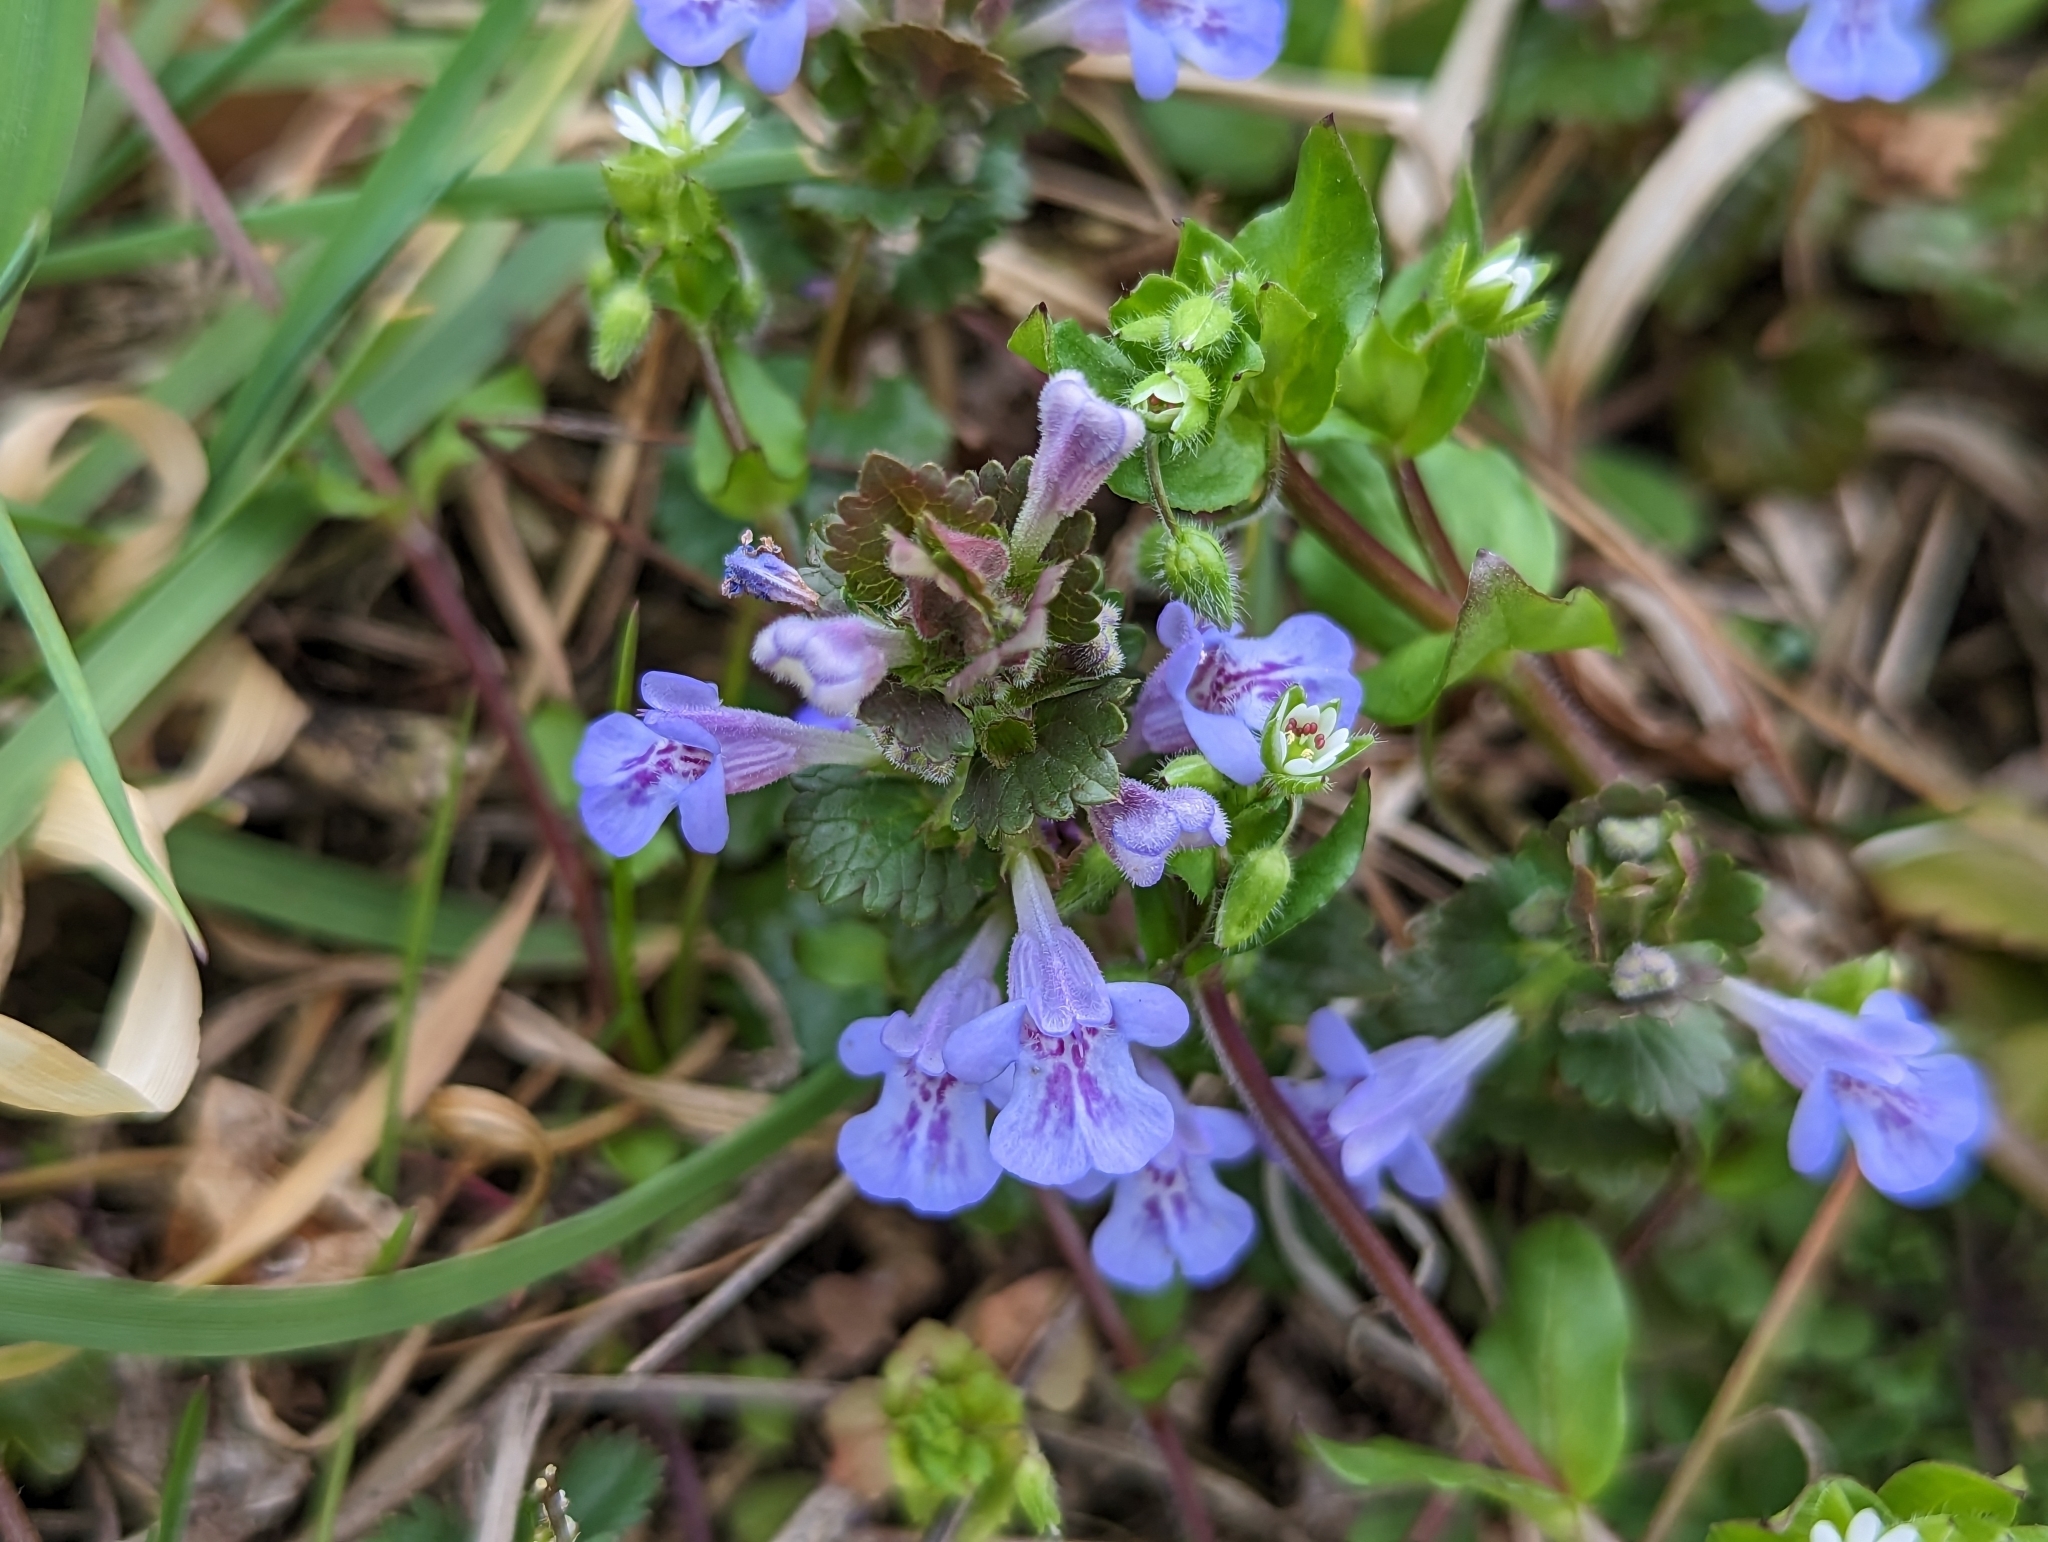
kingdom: Plantae
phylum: Tracheophyta
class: Magnoliopsida
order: Lamiales
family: Lamiaceae
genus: Glechoma
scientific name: Glechoma hederacea
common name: Ground ivy
